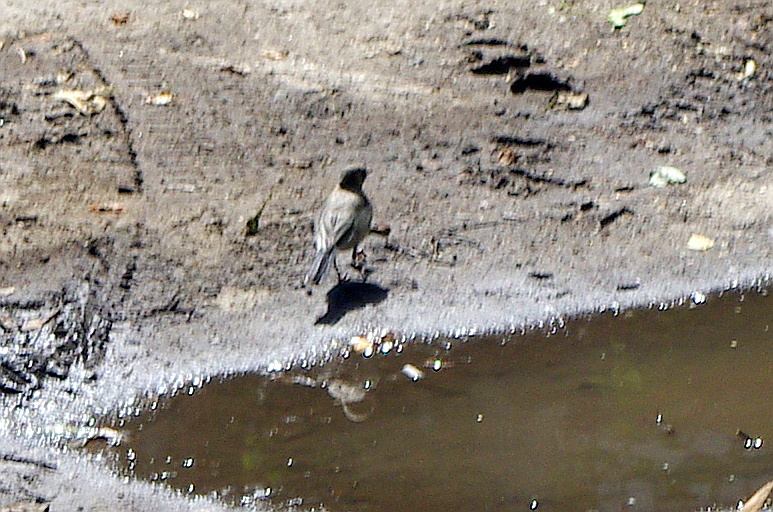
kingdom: Animalia
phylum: Chordata
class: Aves
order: Passeriformes
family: Motacillidae
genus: Motacilla
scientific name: Motacilla alba
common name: White wagtail
